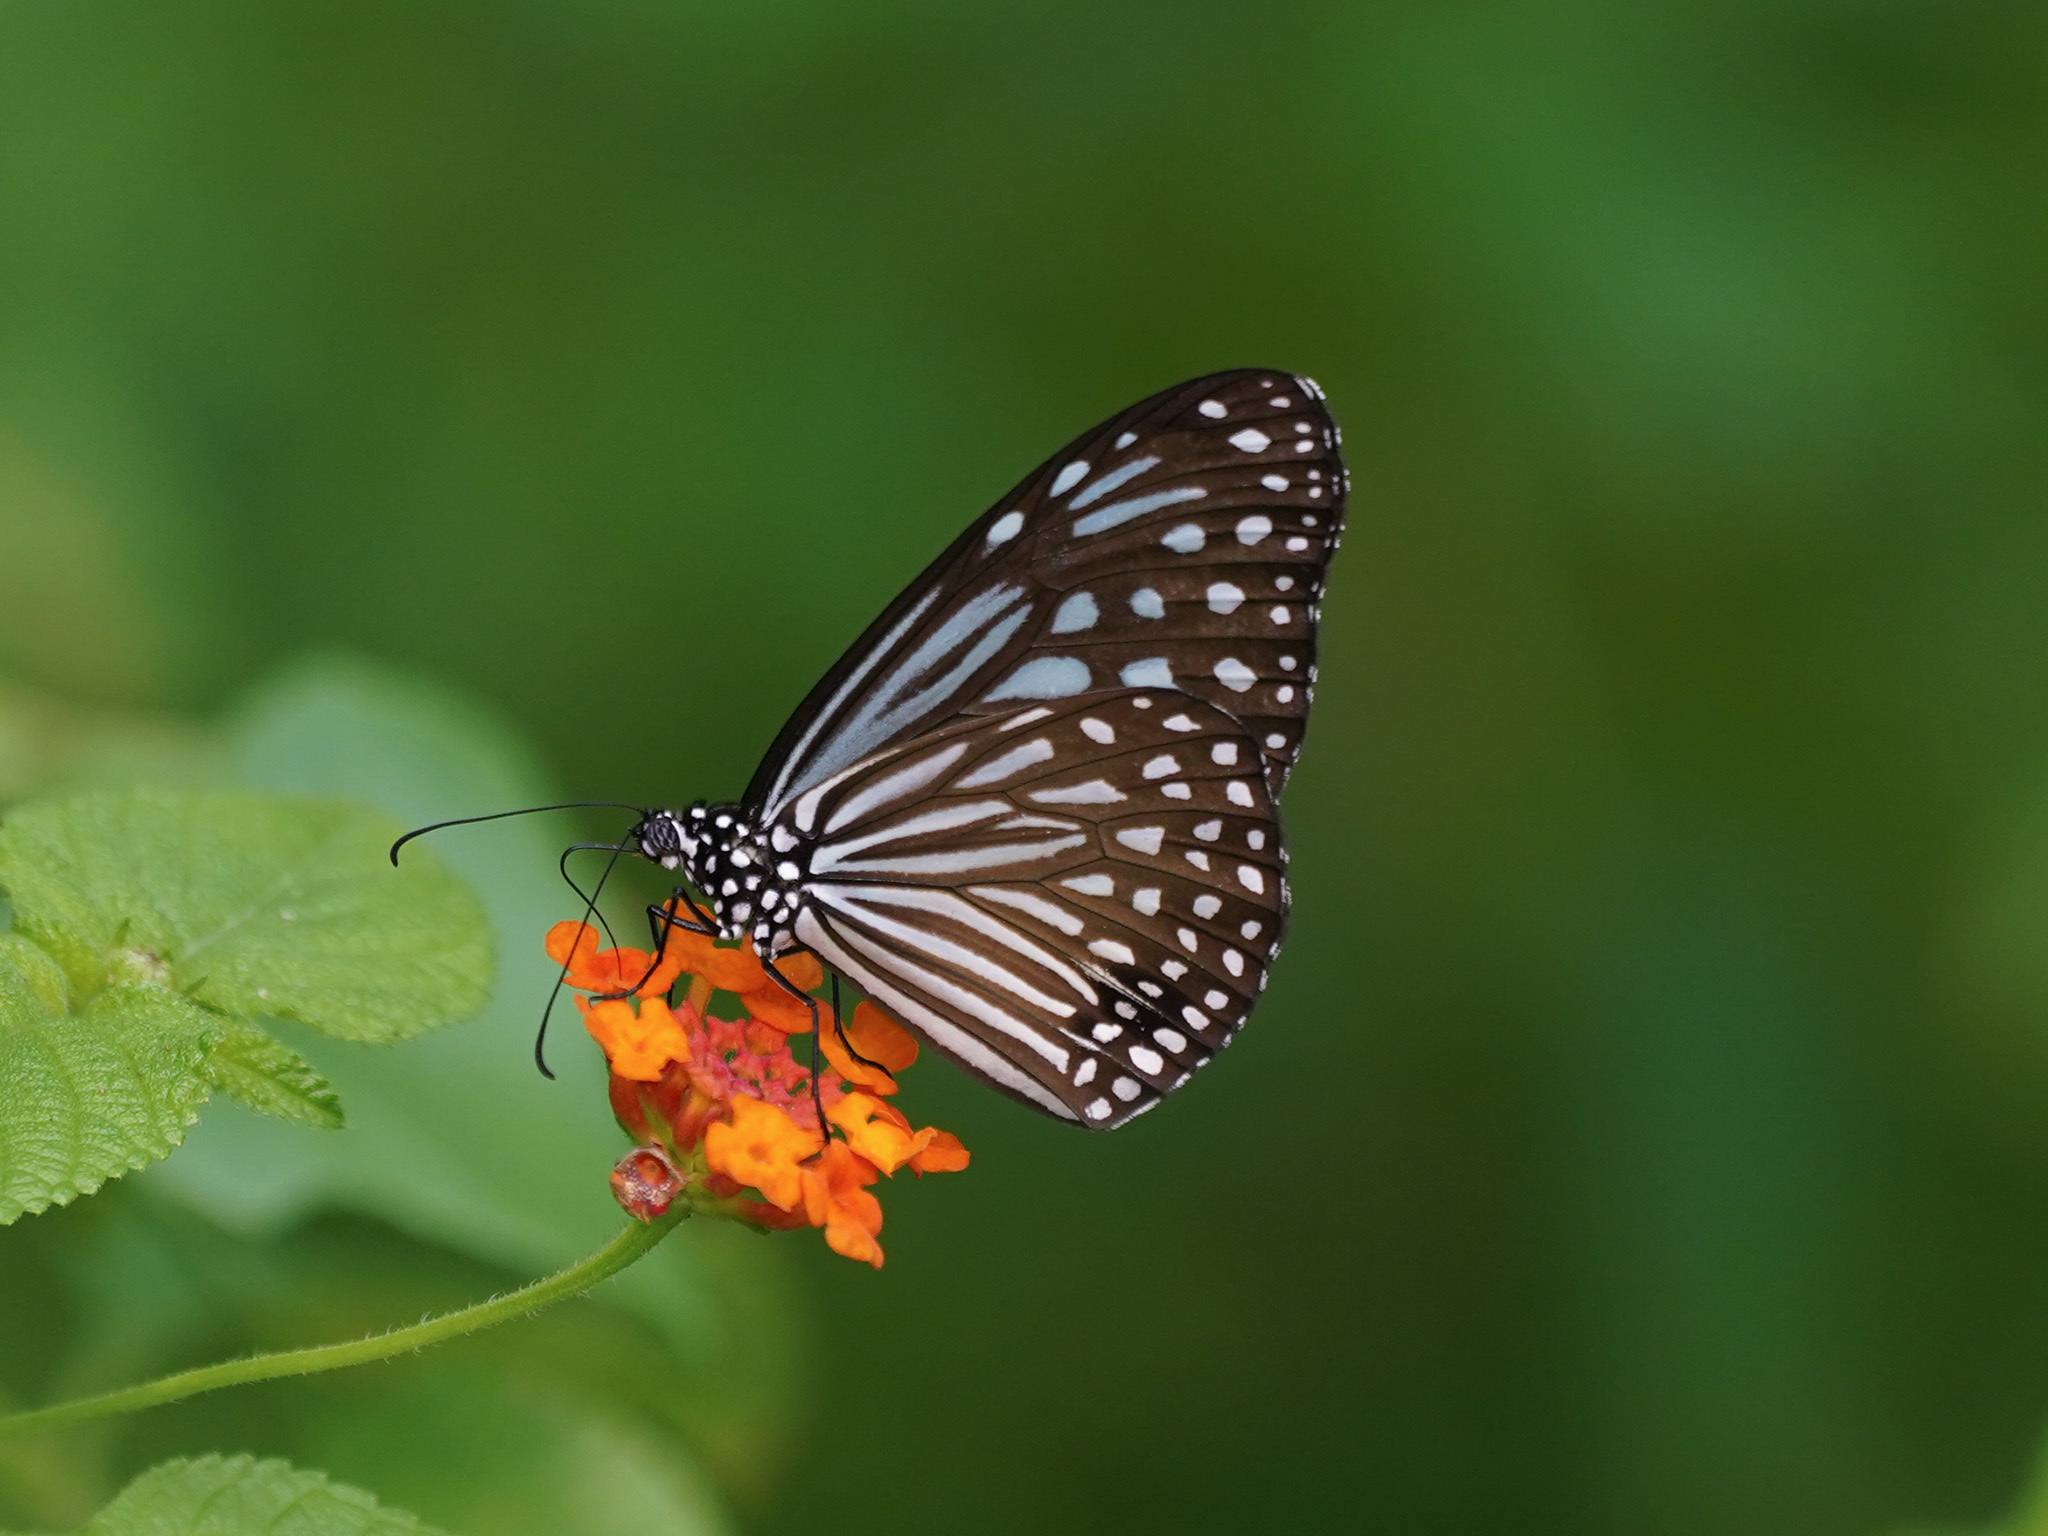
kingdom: Animalia
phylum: Arthropoda
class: Insecta
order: Lepidoptera
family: Nymphalidae
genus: Parantica
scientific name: Parantica agleoides
